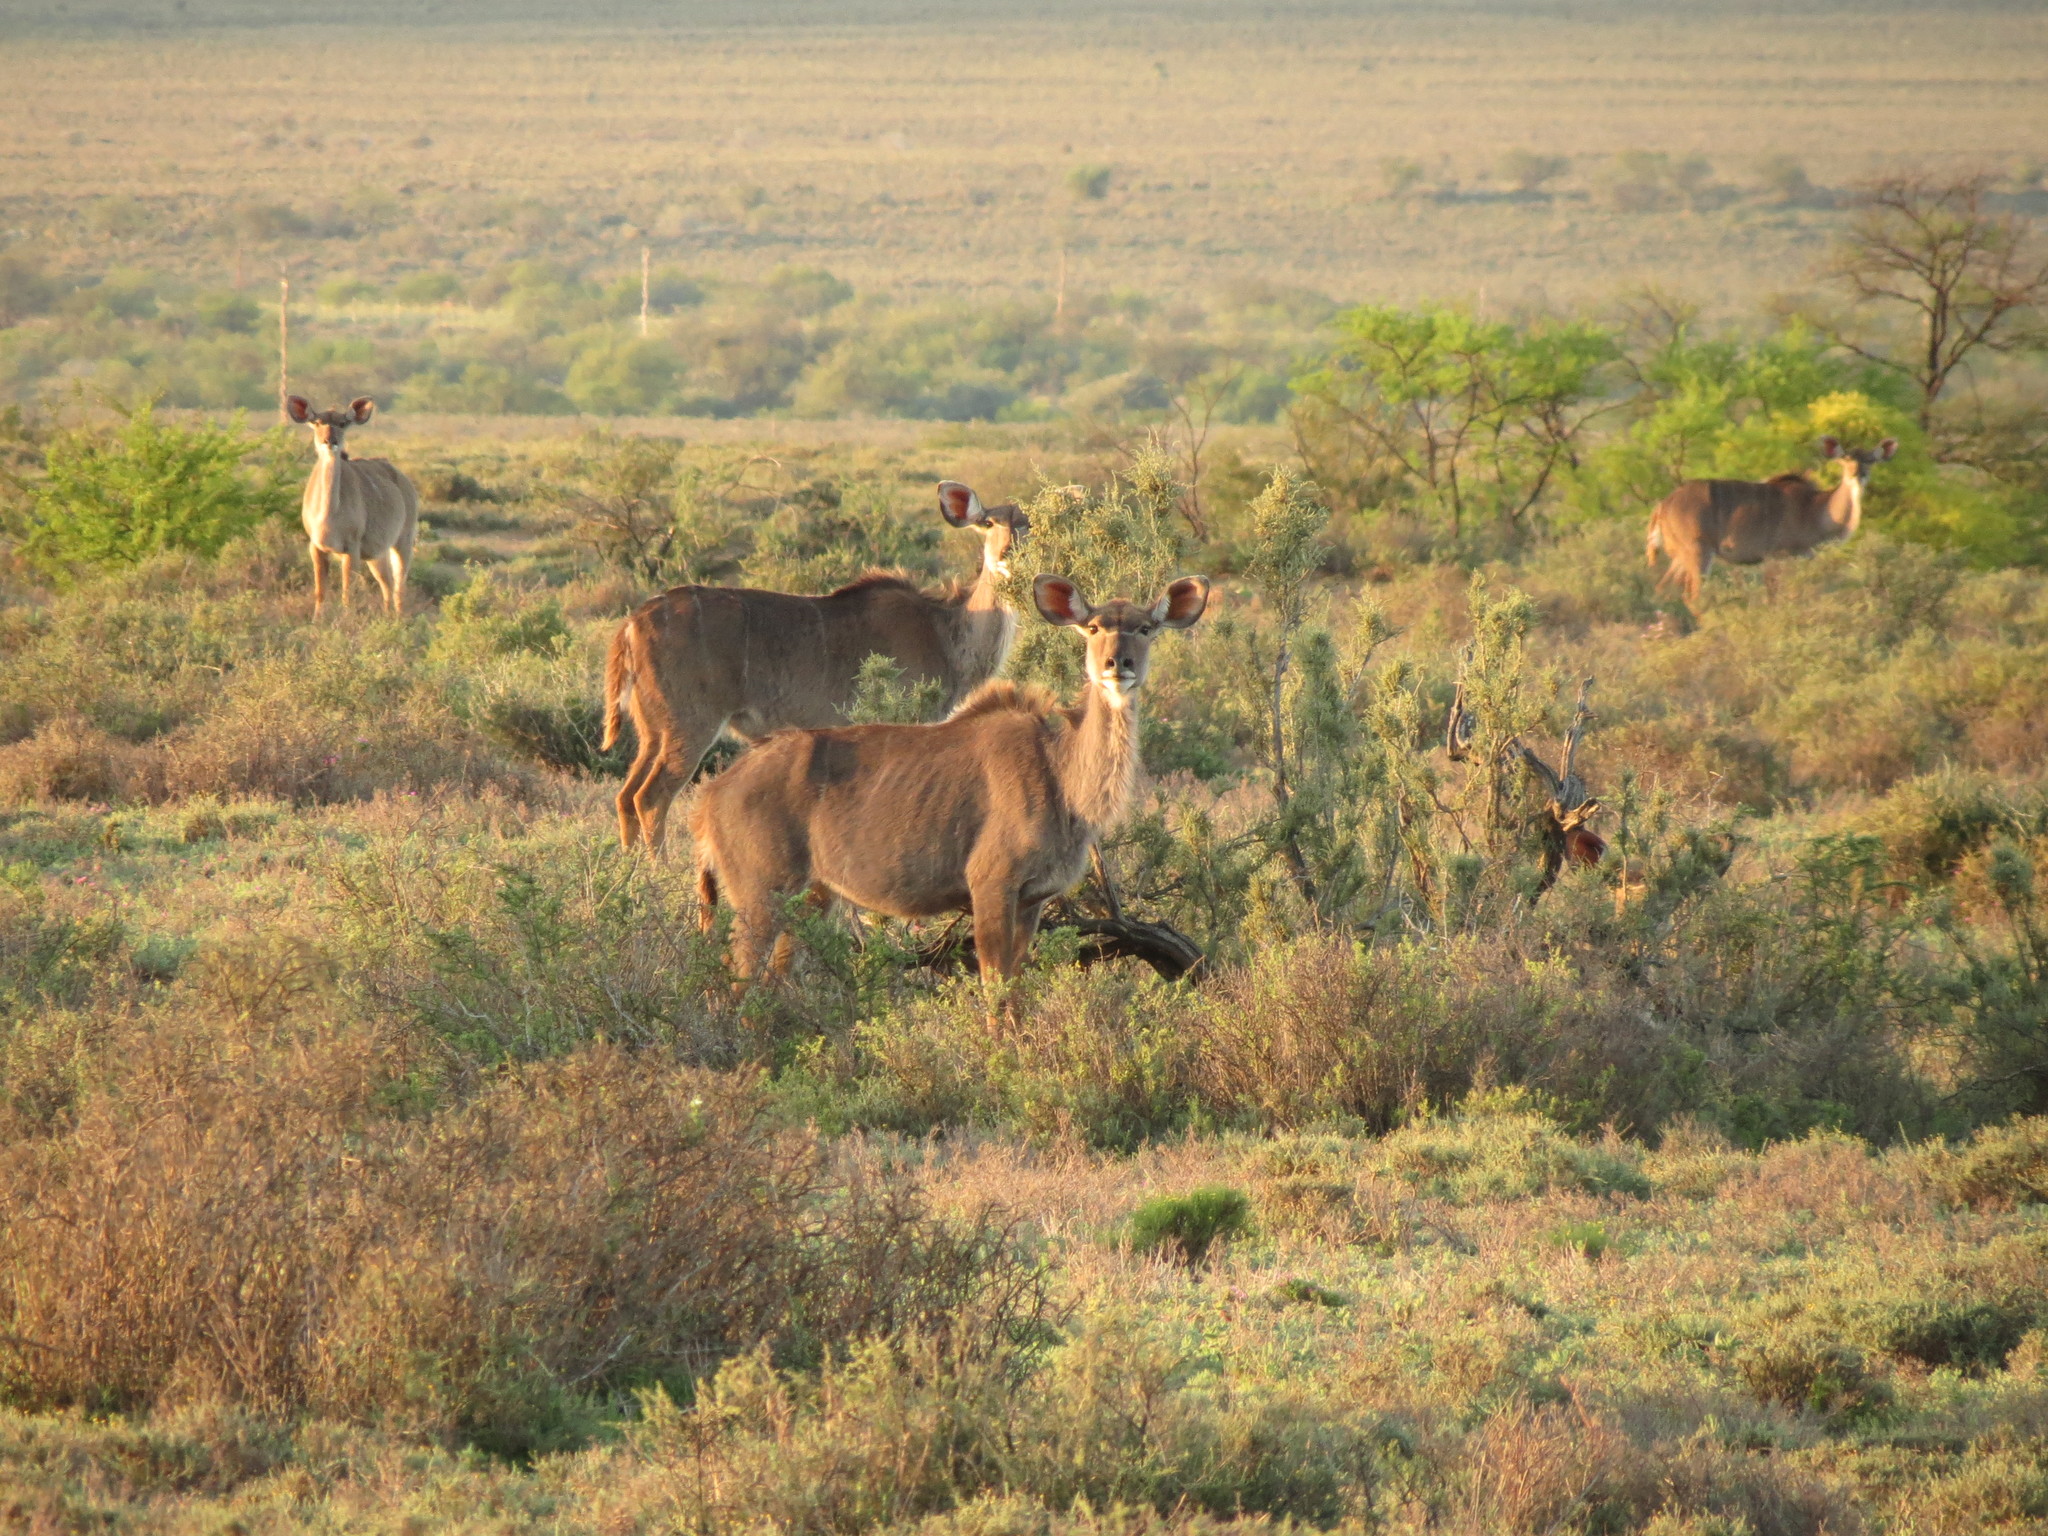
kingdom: Animalia
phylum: Chordata
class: Mammalia
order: Artiodactyla
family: Bovidae
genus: Tragelaphus
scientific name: Tragelaphus strepsiceros
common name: Greater kudu
